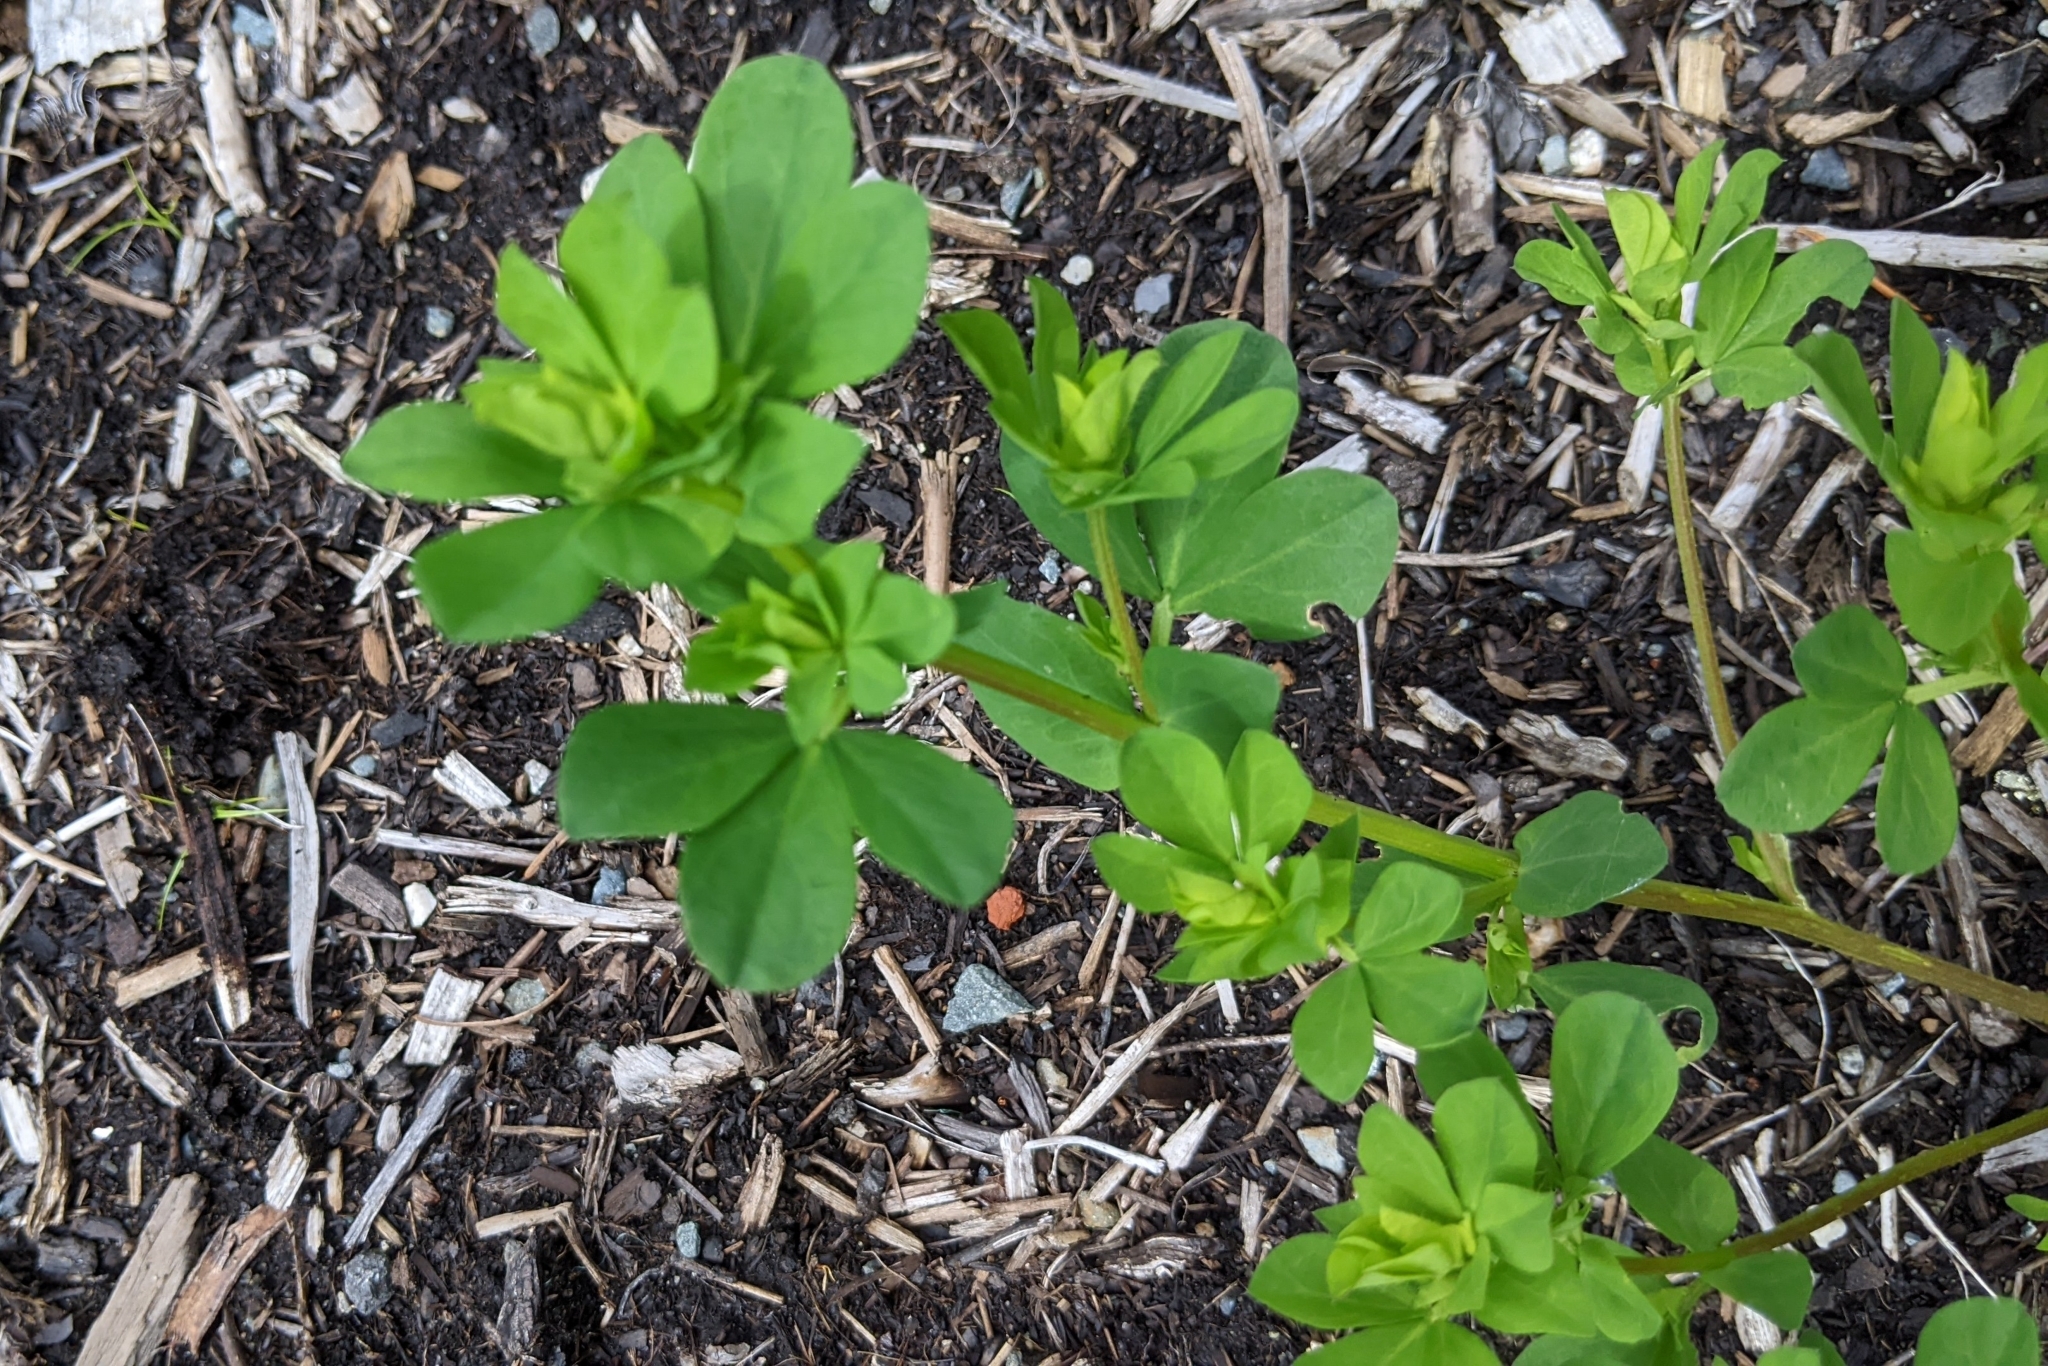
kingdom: Plantae
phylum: Tracheophyta
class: Magnoliopsida
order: Fabales
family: Fabaceae
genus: Lotus
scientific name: Lotus corniculatus
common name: Common bird's-foot-trefoil
